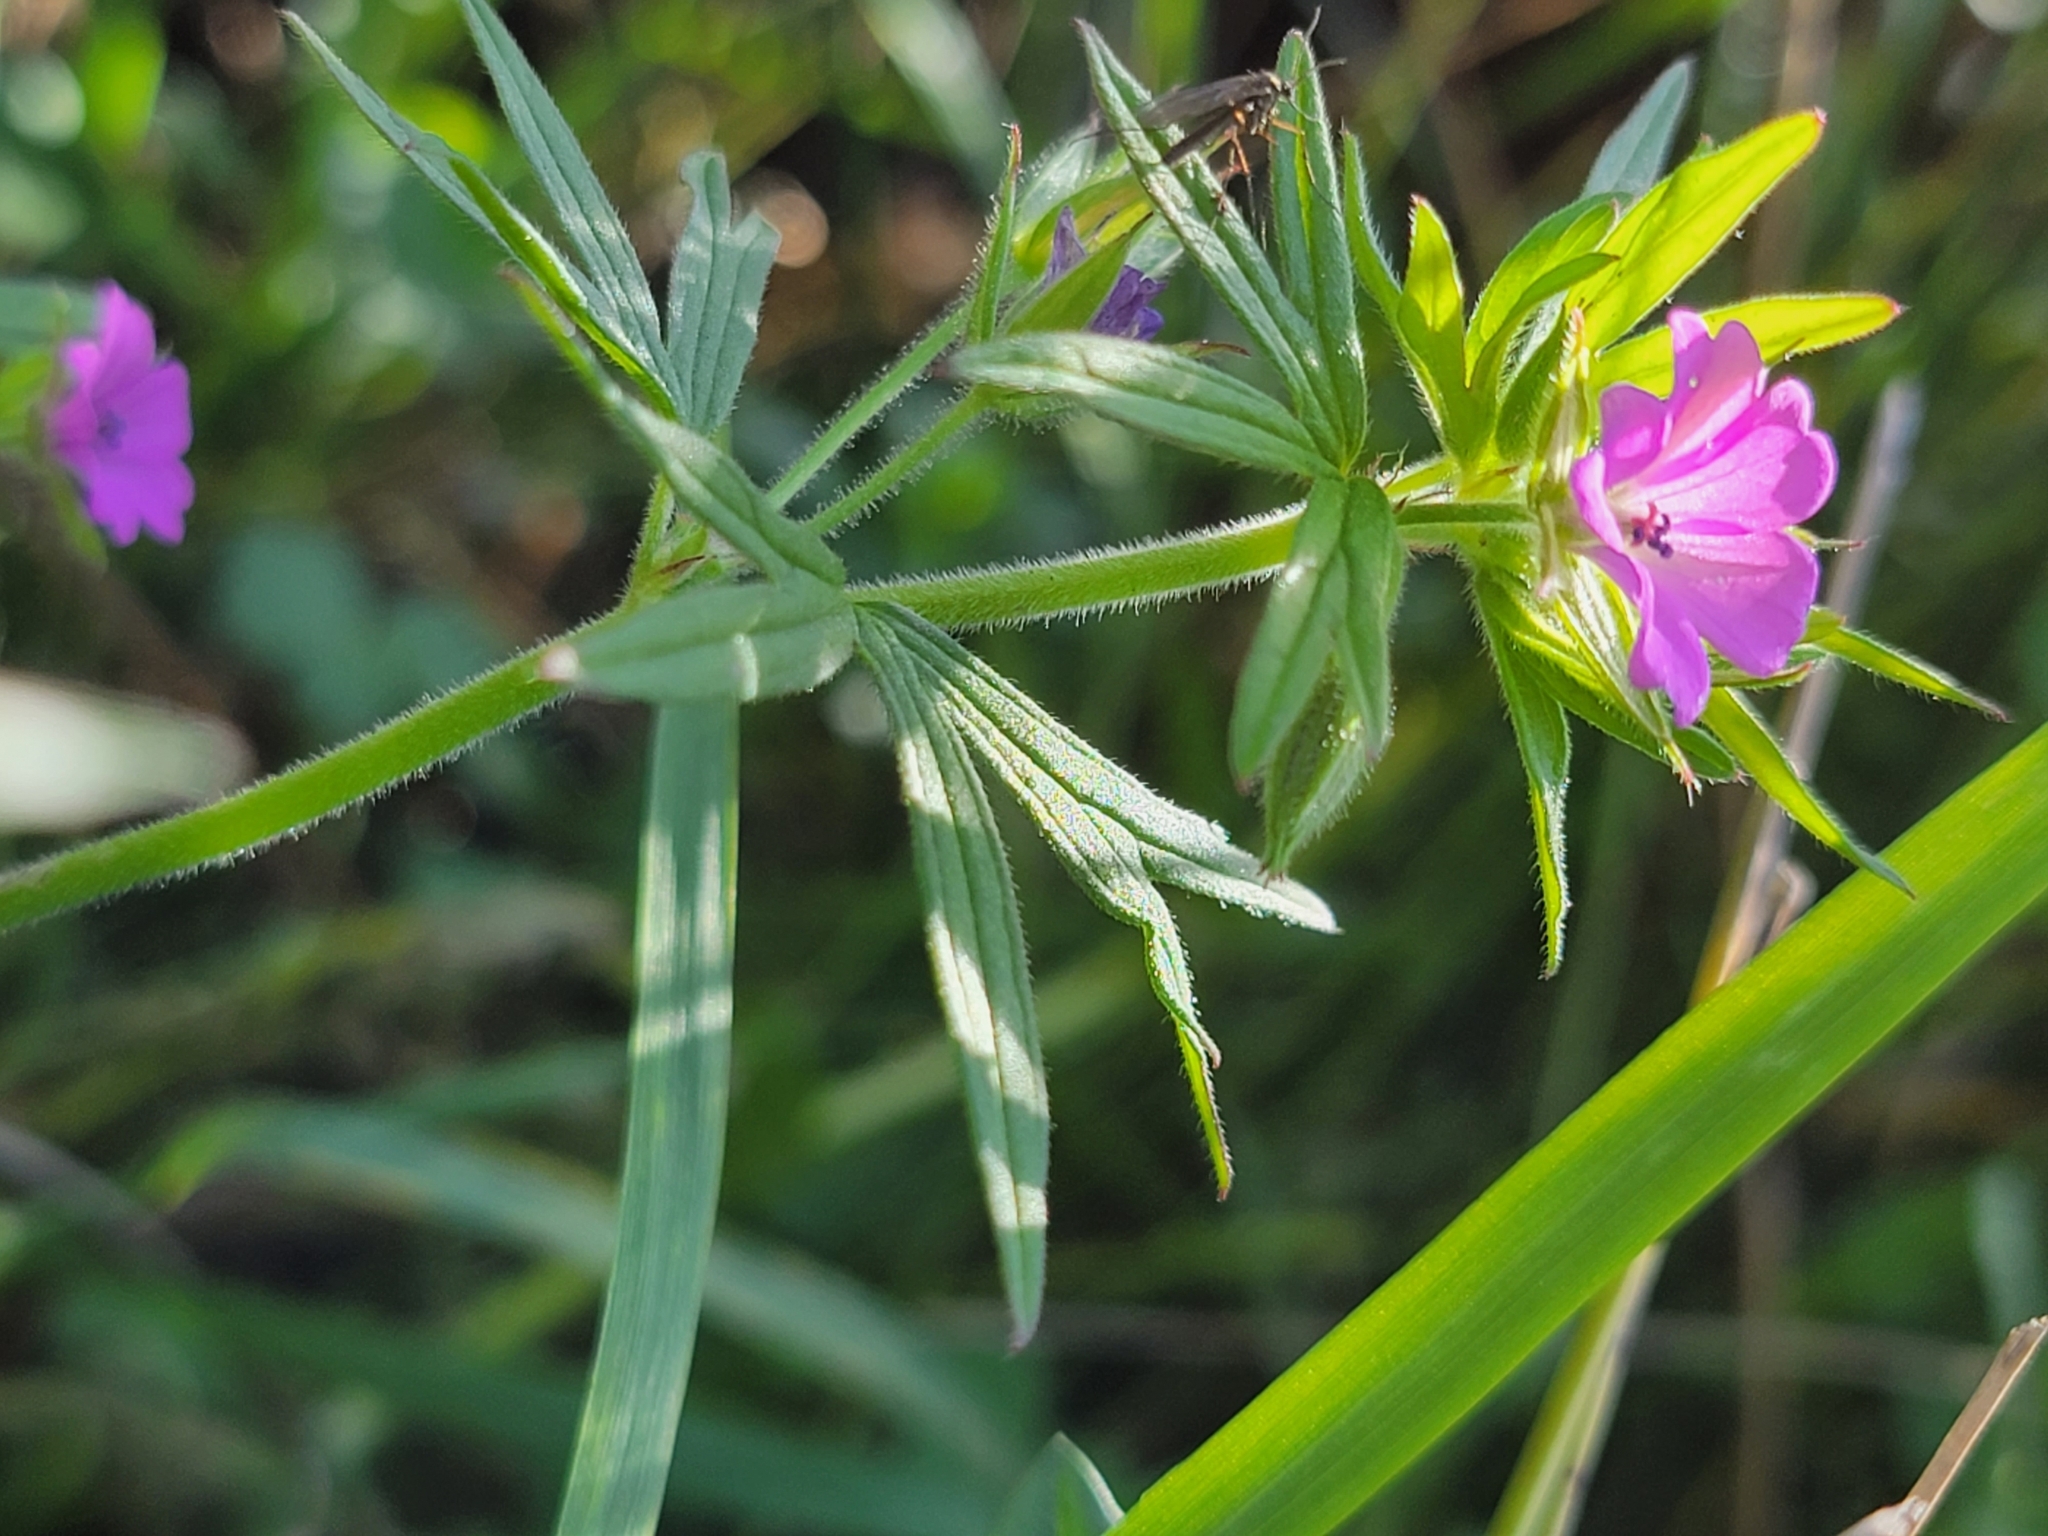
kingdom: Plantae
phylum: Tracheophyta
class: Magnoliopsida
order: Geraniales
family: Geraniaceae
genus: Geranium
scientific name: Geranium dissectum
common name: Cut-leaved crane's-bill
